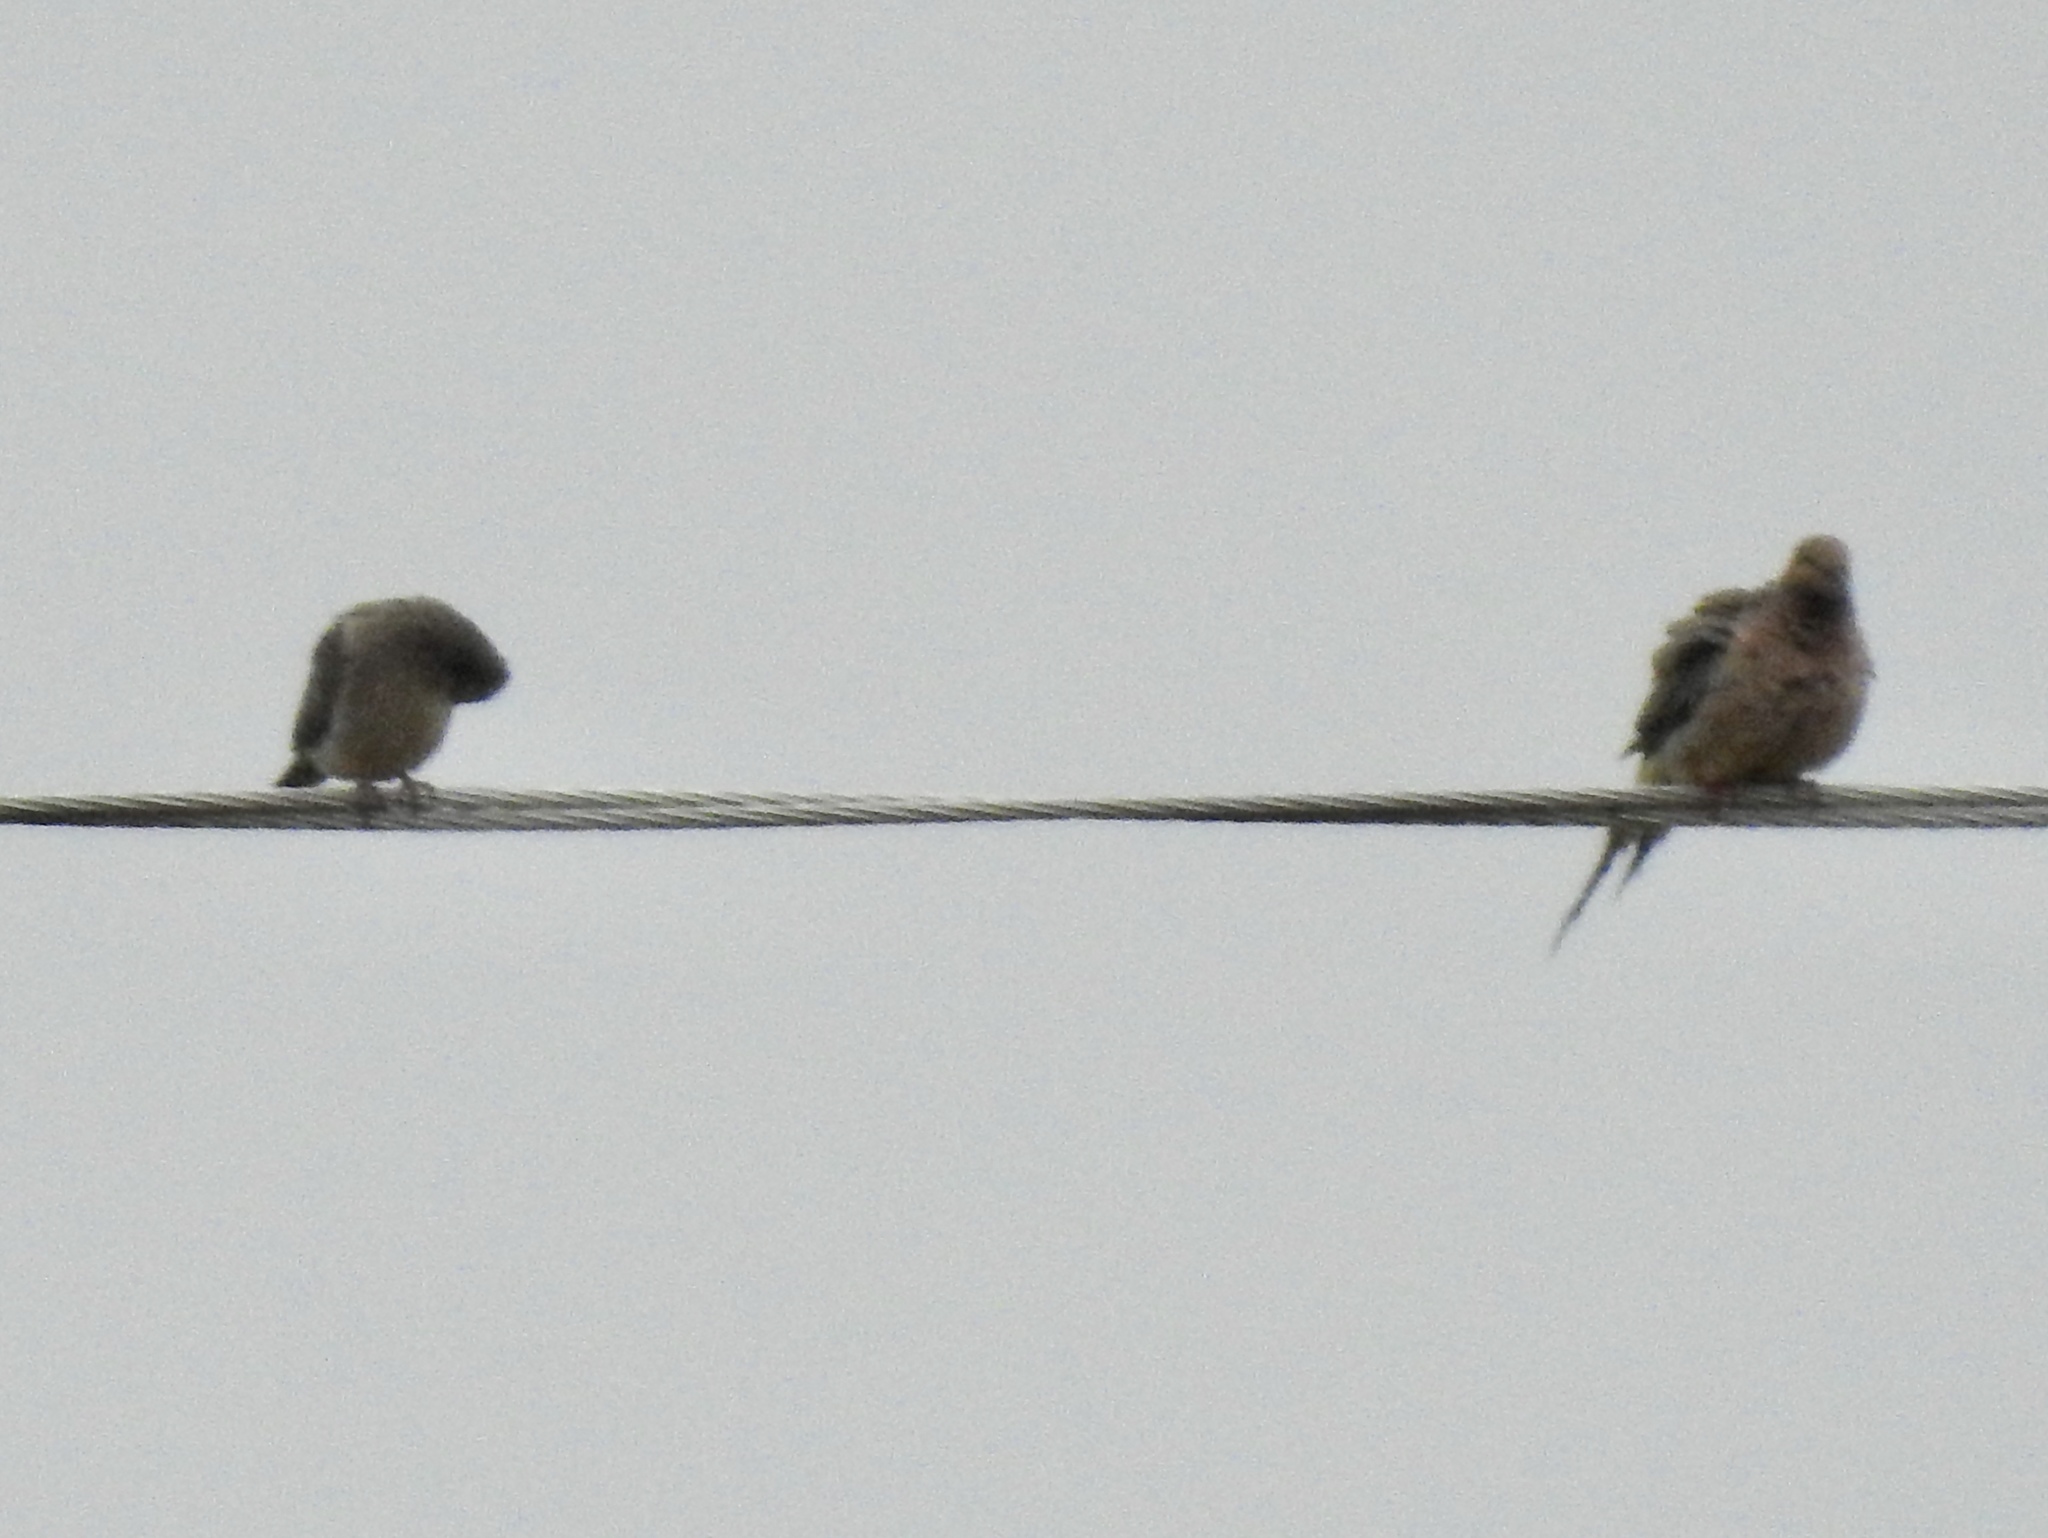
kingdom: Animalia
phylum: Chordata
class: Aves
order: Columbiformes
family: Columbidae
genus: Zenaida
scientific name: Zenaida macroura
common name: Mourning dove
